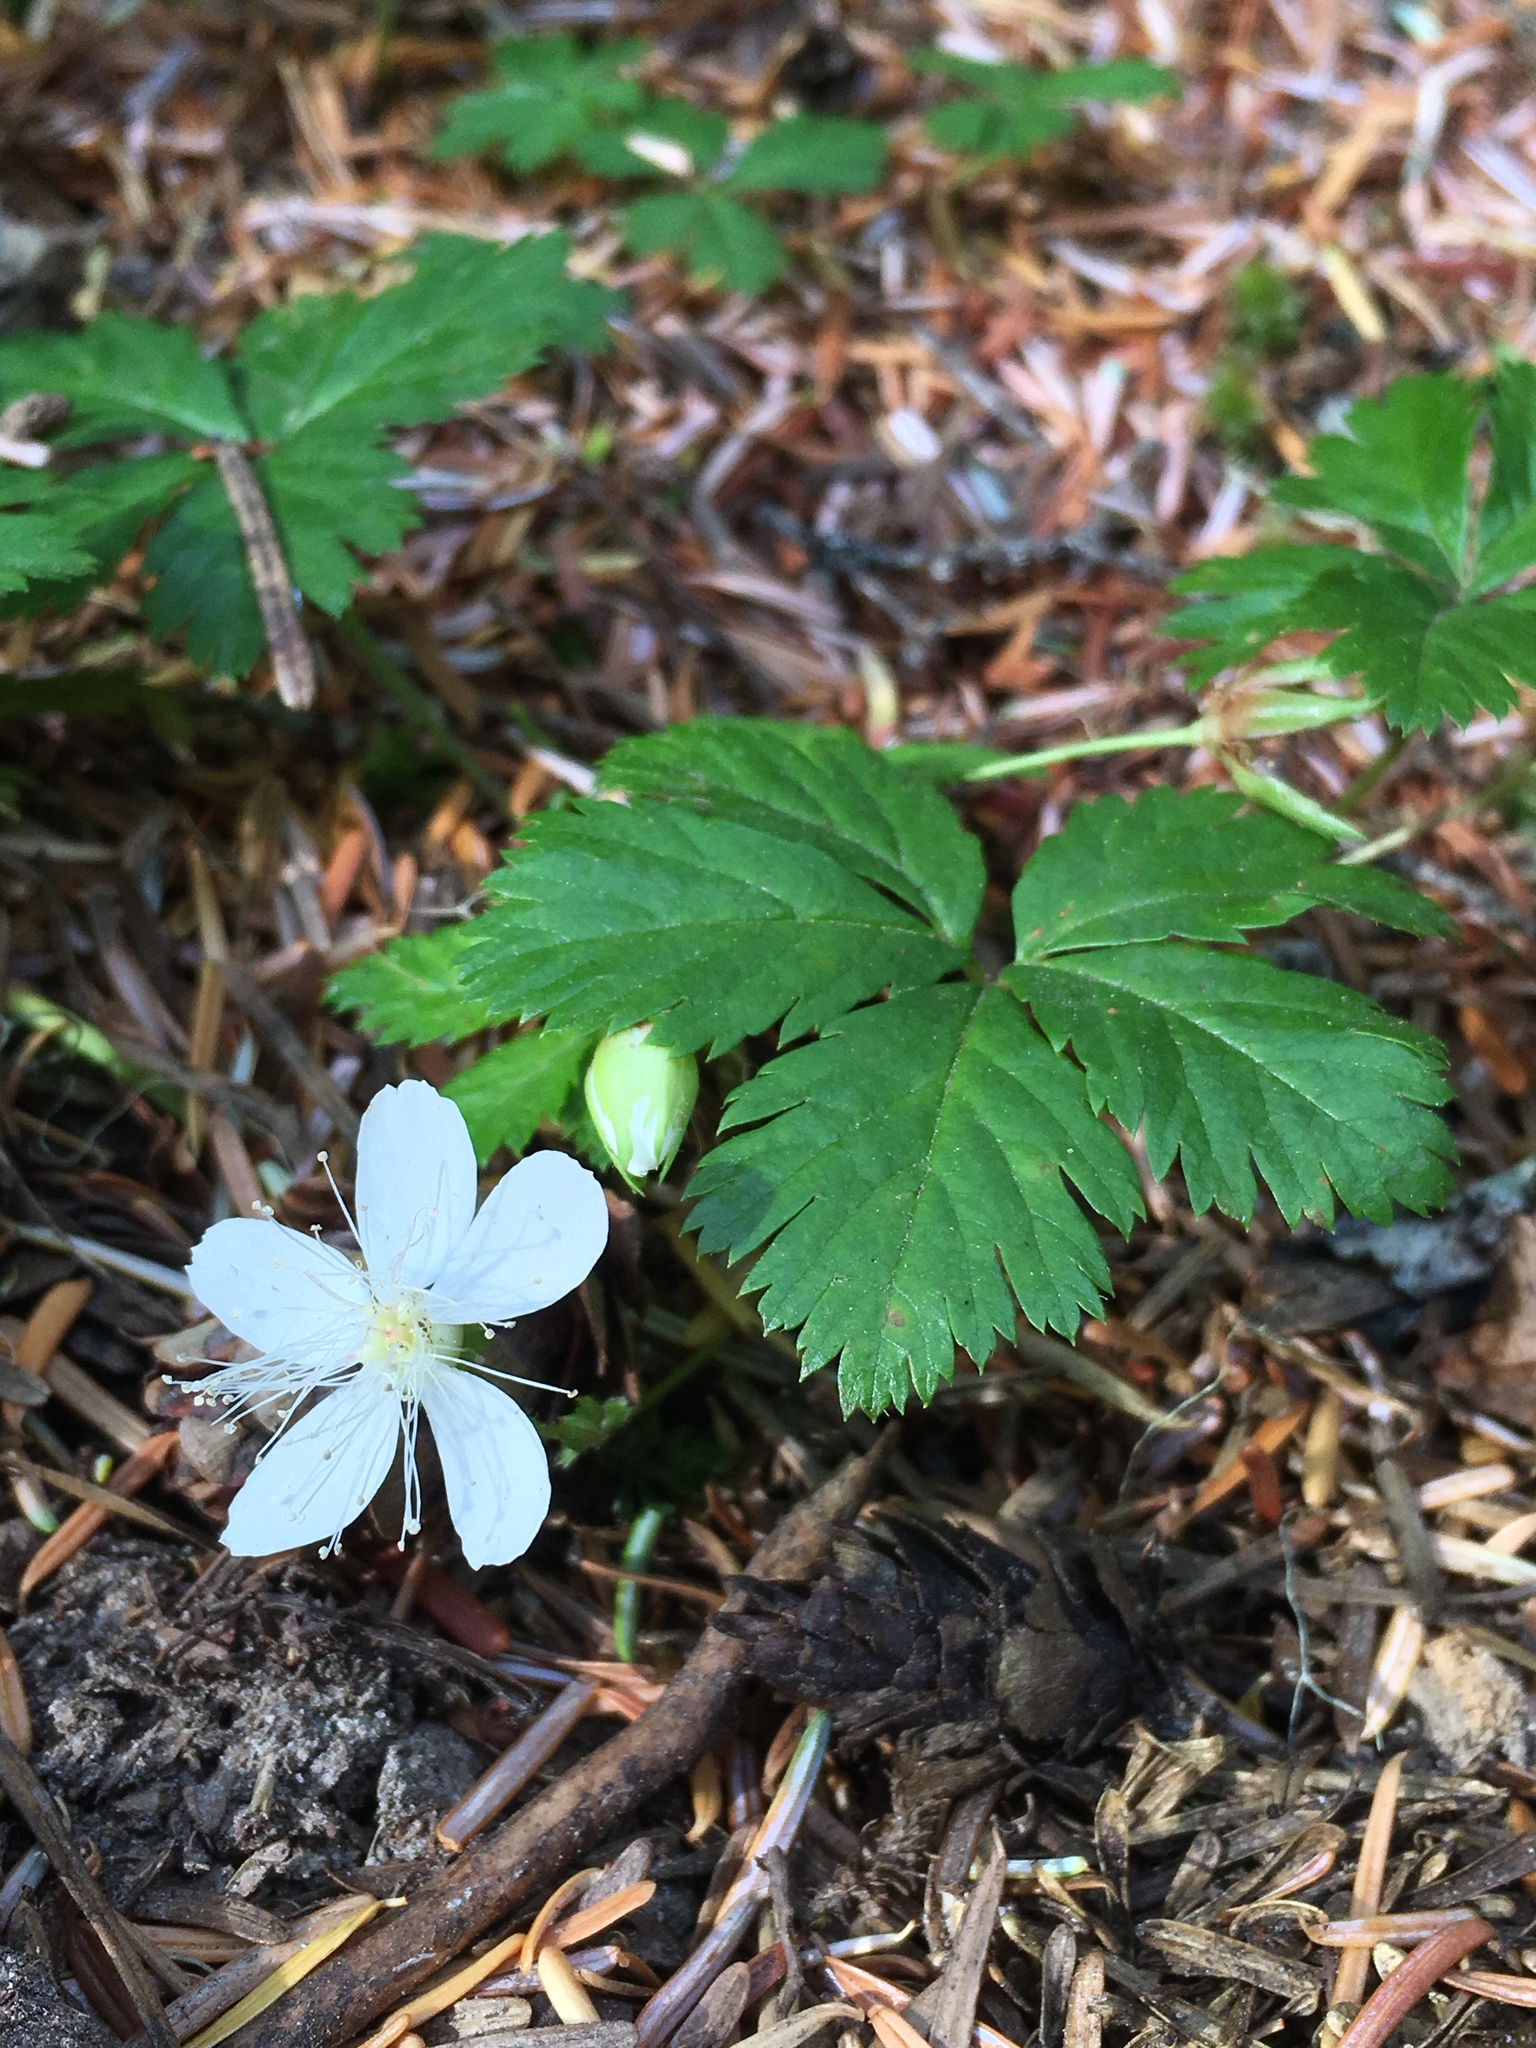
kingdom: Plantae
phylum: Tracheophyta
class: Magnoliopsida
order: Rosales
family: Rosaceae
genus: Rubus
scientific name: Rubus pedatus
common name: Creeping raspberry
